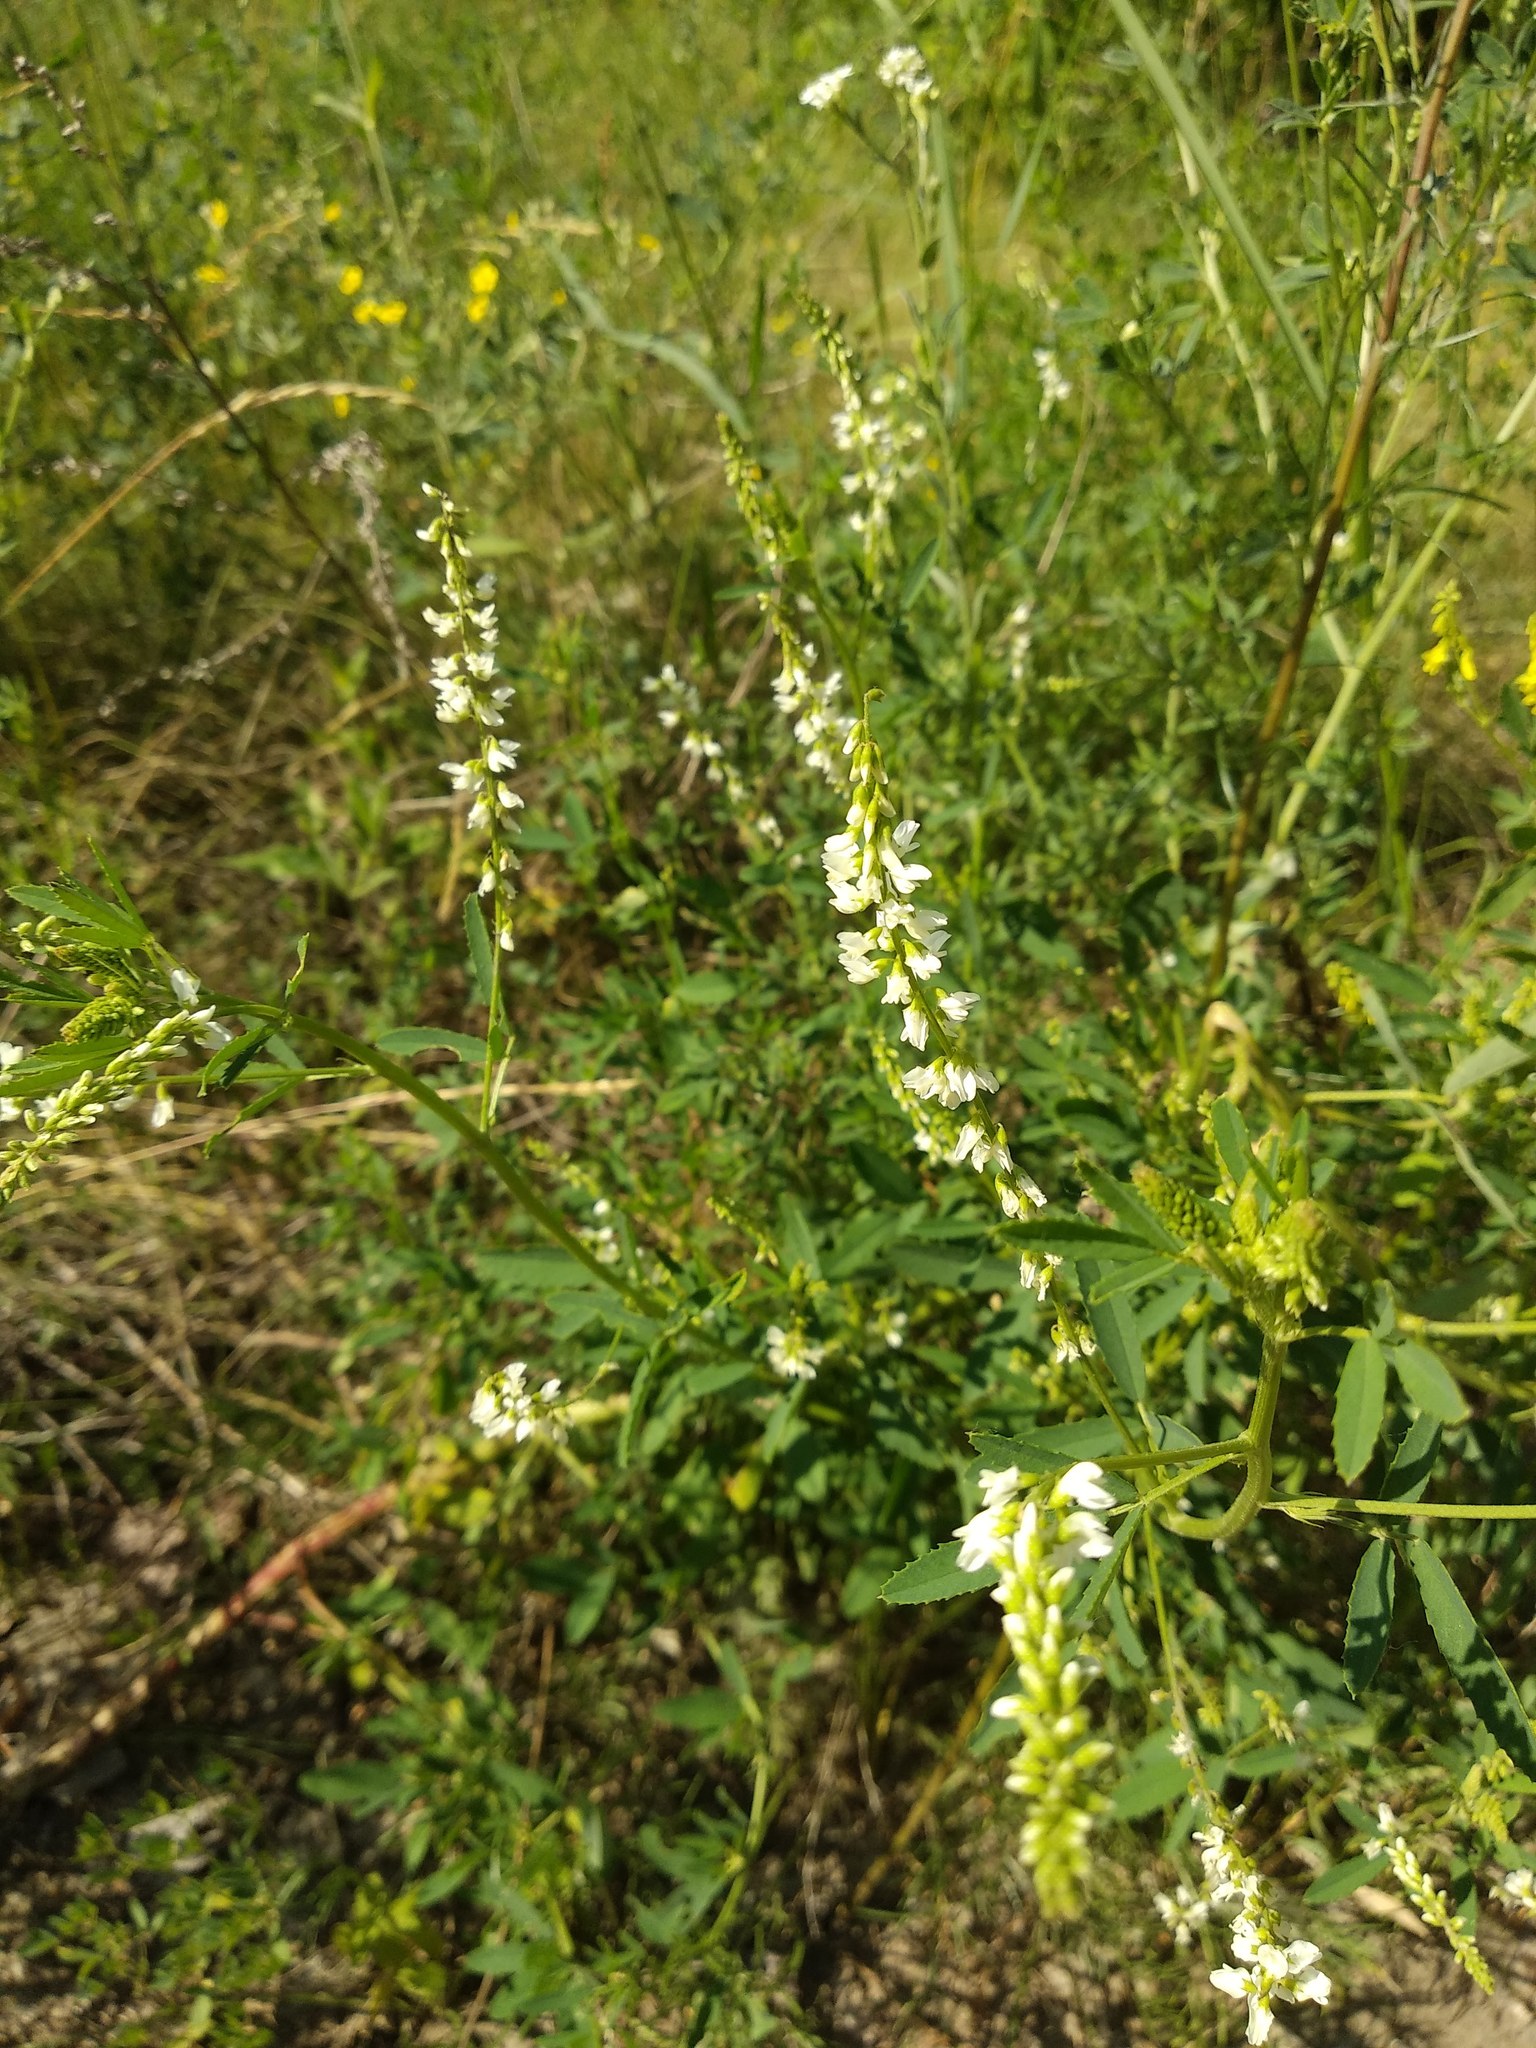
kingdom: Plantae
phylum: Tracheophyta
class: Magnoliopsida
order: Fabales
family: Fabaceae
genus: Melilotus
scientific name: Melilotus albus
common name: White melilot
